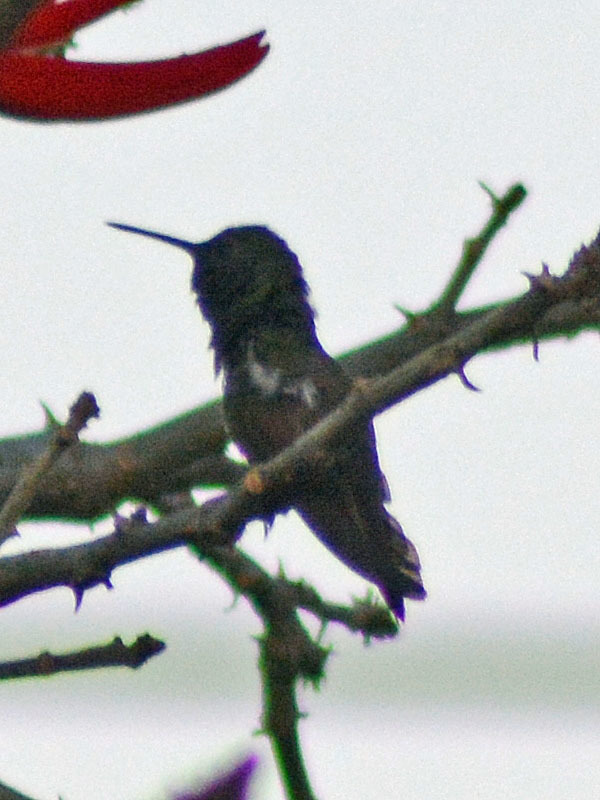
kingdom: Animalia
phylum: Chordata
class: Aves
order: Apodiformes
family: Trochilidae
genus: Saucerottia
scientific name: Saucerottia beryllina
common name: Berylline hummingbird
